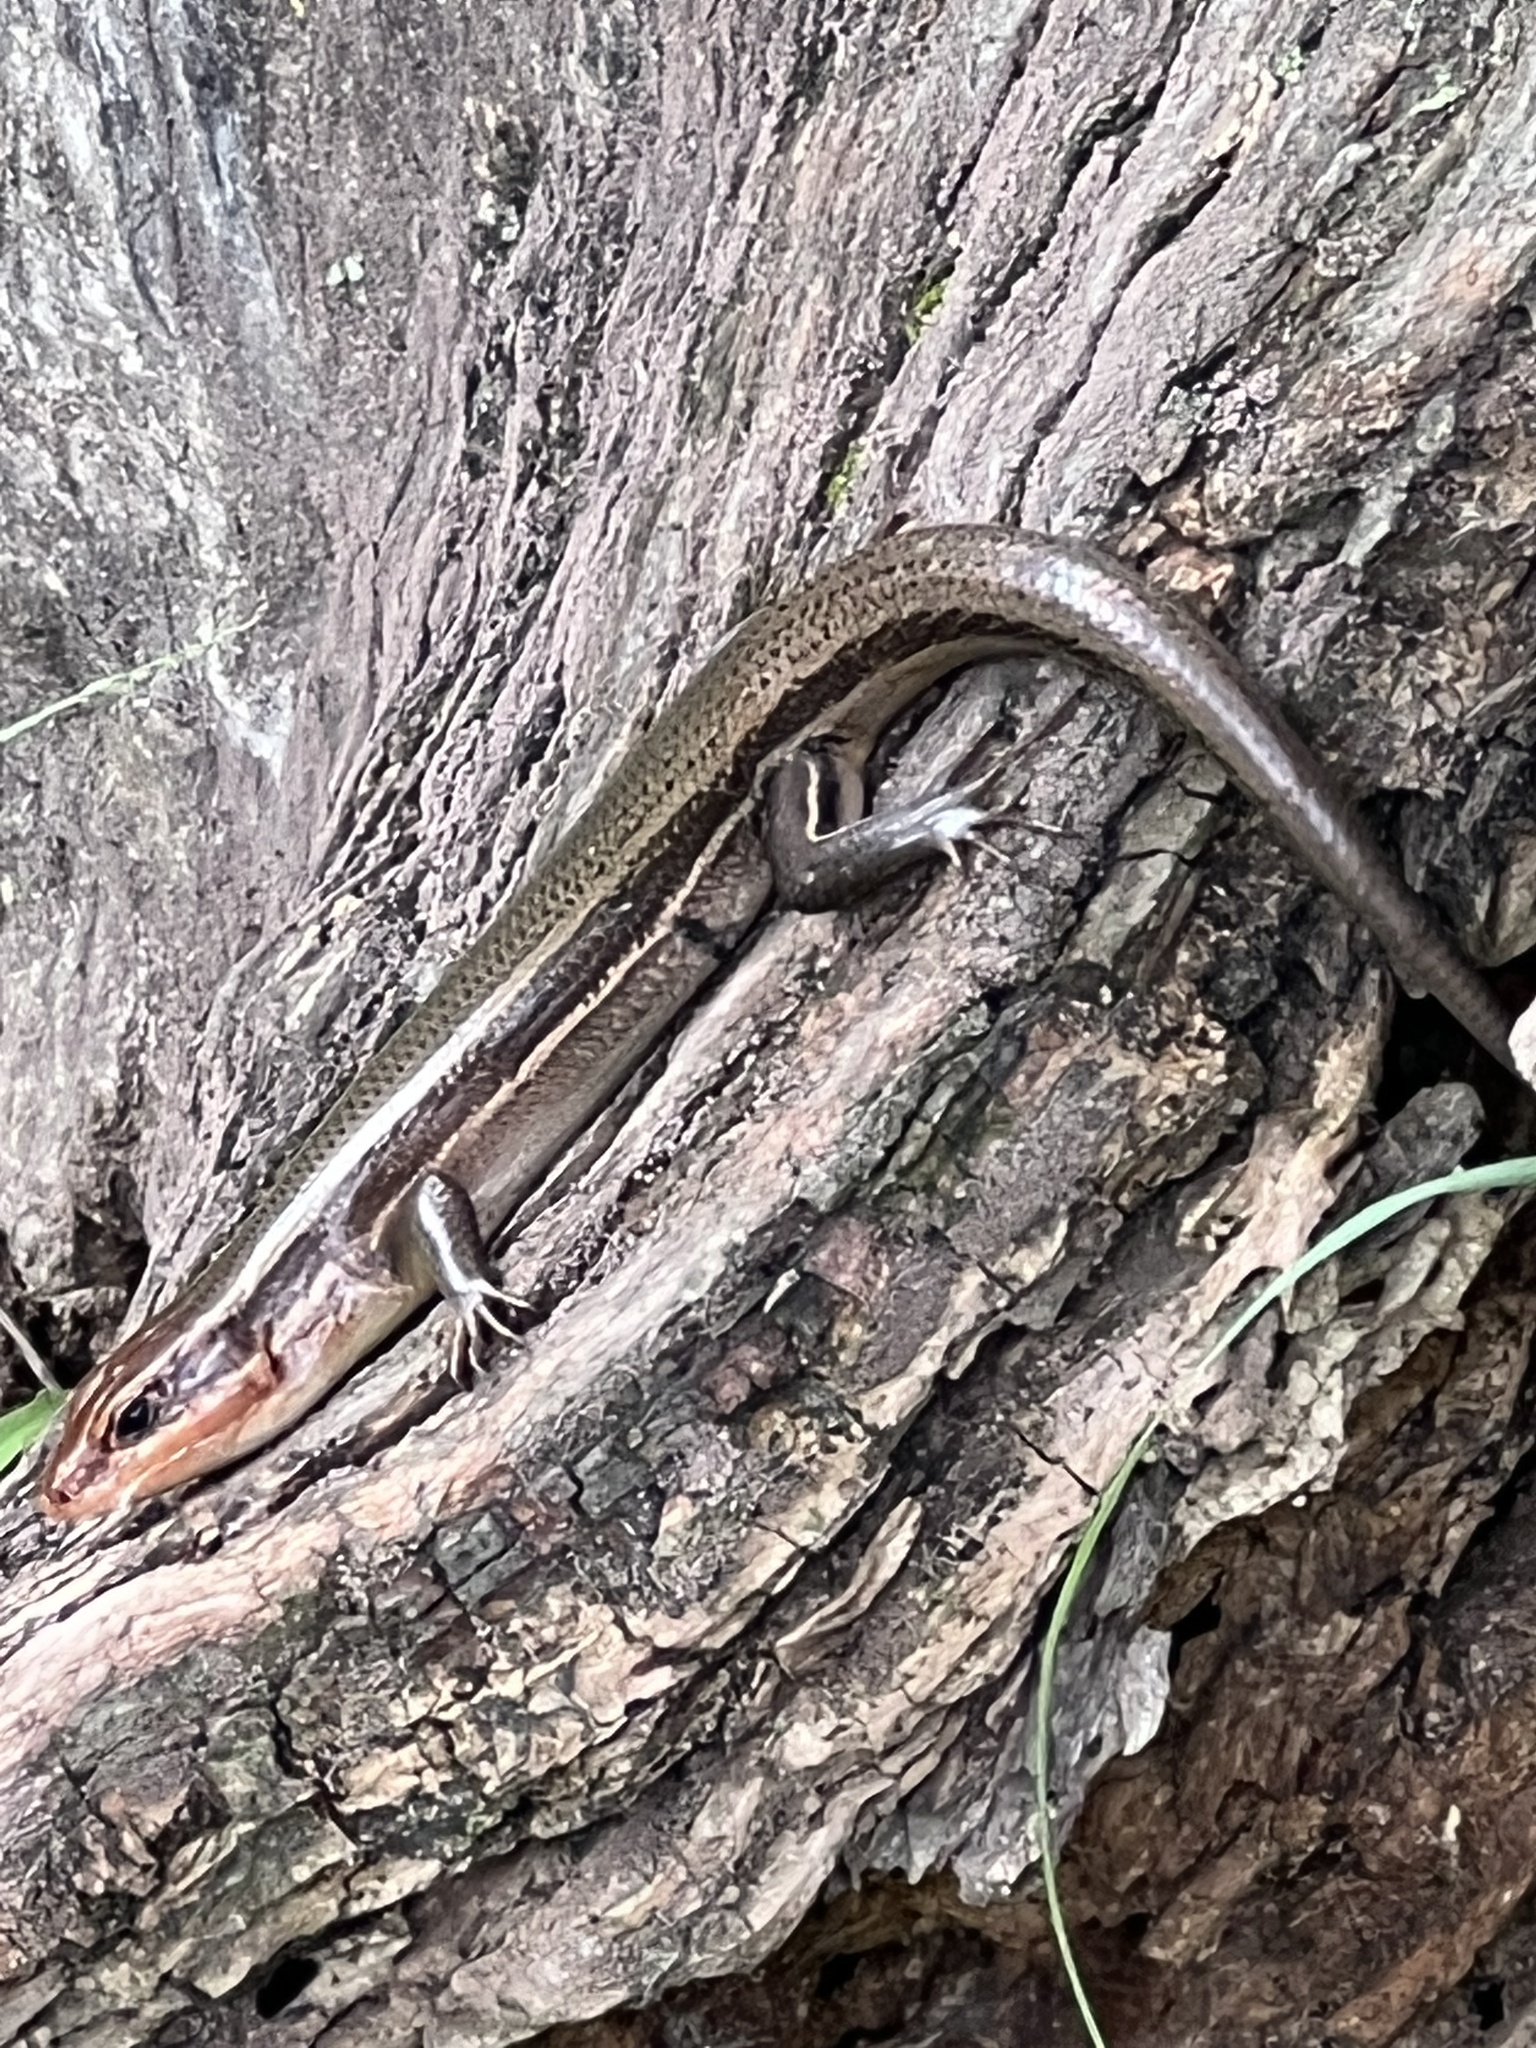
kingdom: Animalia
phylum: Chordata
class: Squamata
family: Scincidae
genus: Plestiodon
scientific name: Plestiodon laticeps
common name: Broadhead skink
